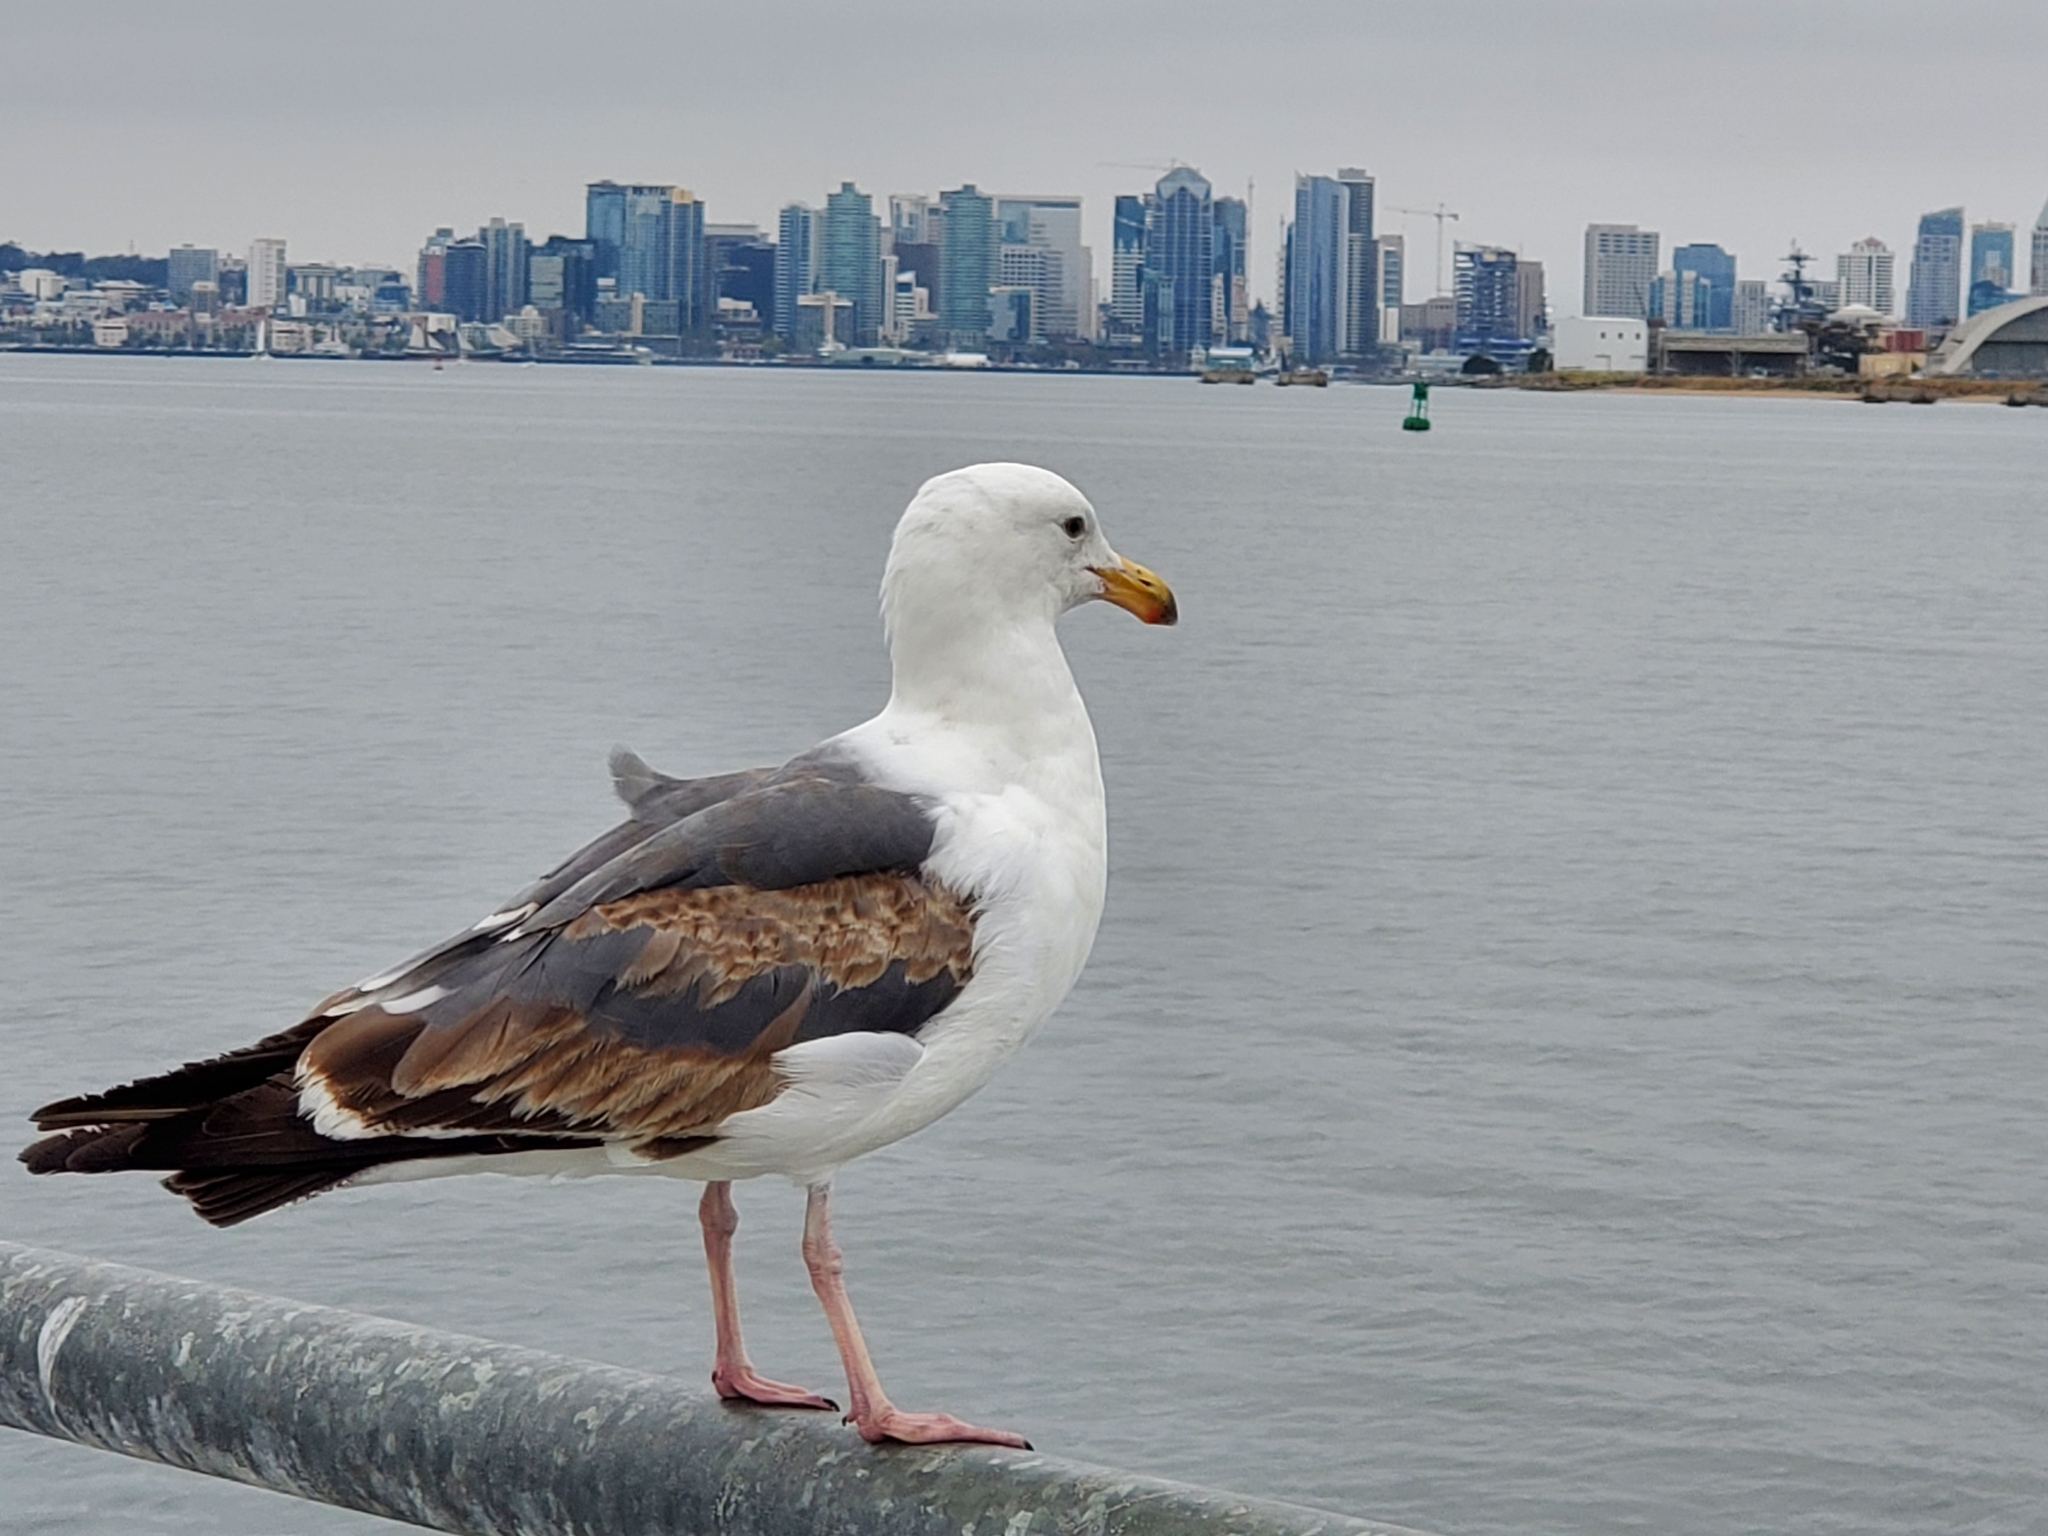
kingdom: Animalia
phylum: Chordata
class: Aves
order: Charadriiformes
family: Laridae
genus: Larus
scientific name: Larus occidentalis
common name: Western gull
